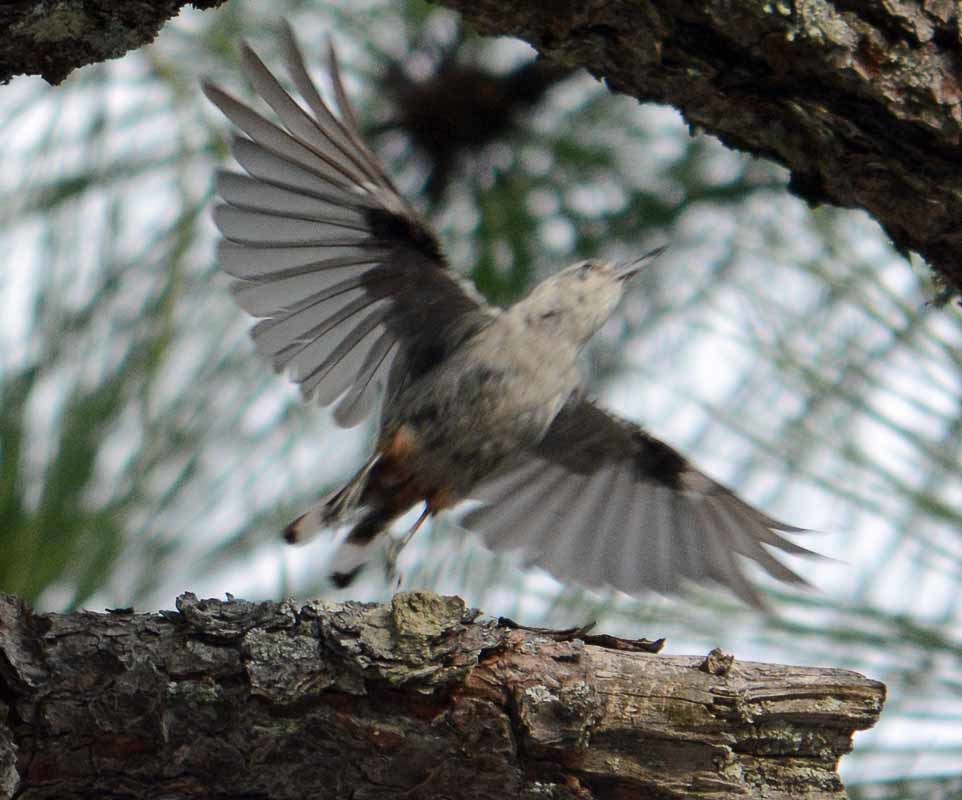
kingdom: Animalia
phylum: Chordata
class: Aves
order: Passeriformes
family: Sittidae
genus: Sitta
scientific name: Sitta carolinensis
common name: White-breasted nuthatch
